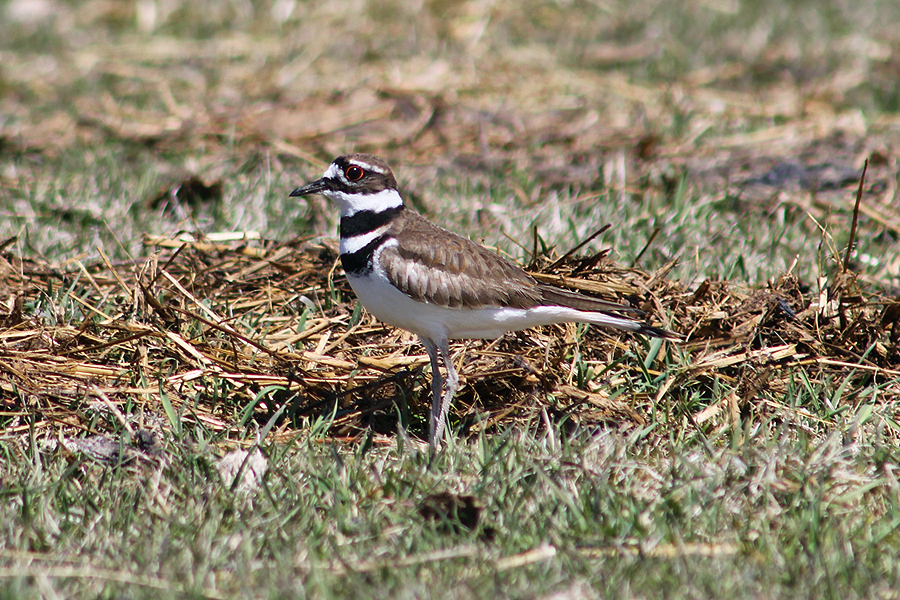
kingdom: Animalia
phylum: Chordata
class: Aves
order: Charadriiformes
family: Charadriidae
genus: Charadrius
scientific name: Charadrius vociferus
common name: Killdeer
